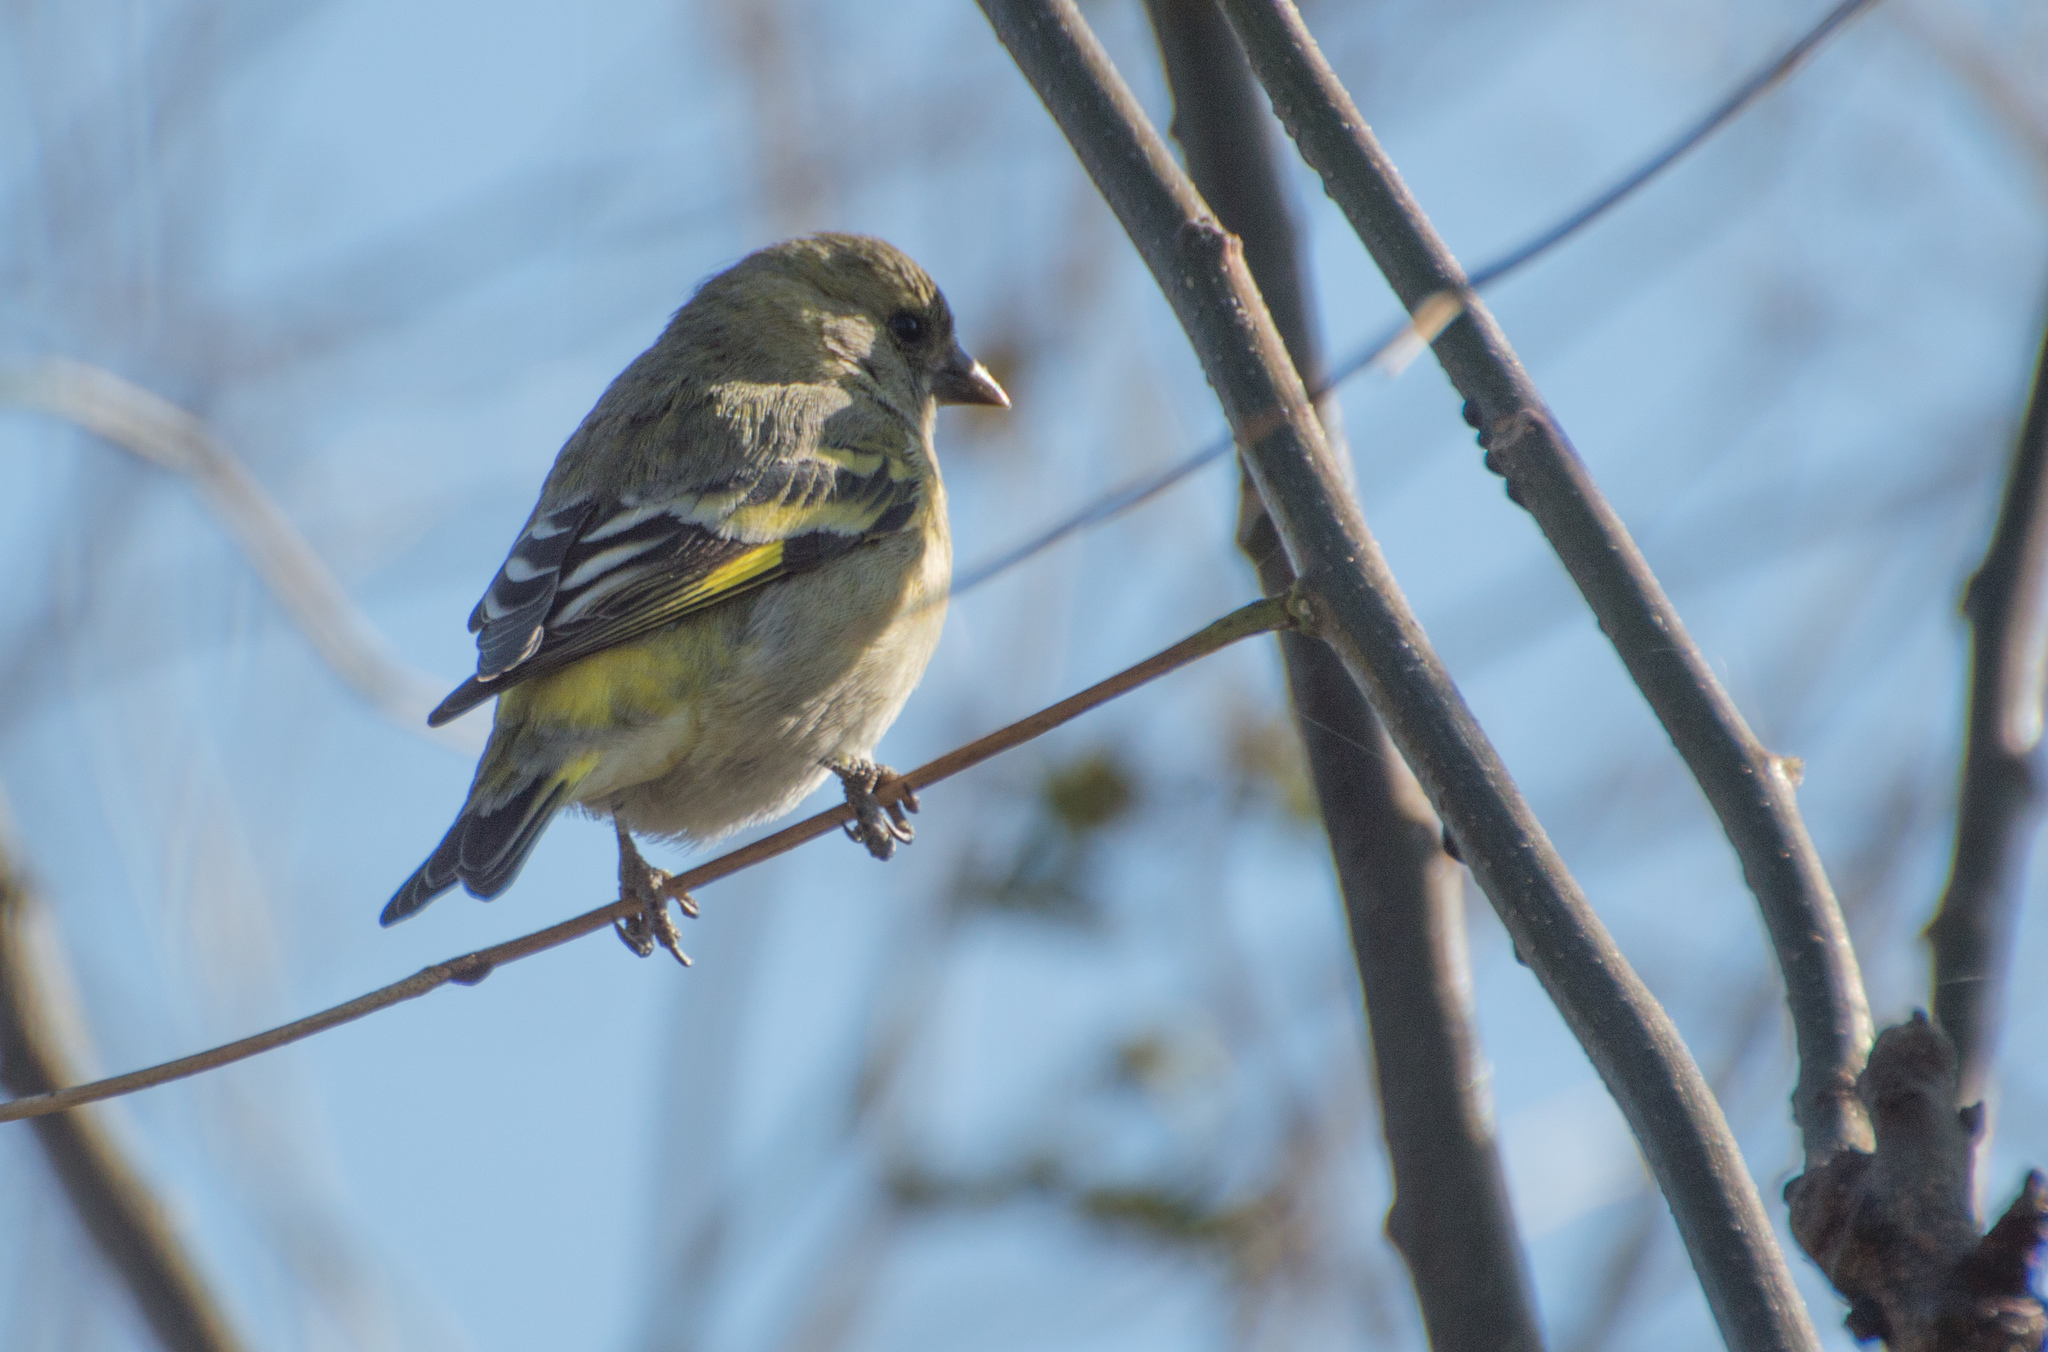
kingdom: Animalia
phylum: Chordata
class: Aves
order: Passeriformes
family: Fringillidae
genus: Spinus
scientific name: Spinus magellanicus
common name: Hooded siskin
